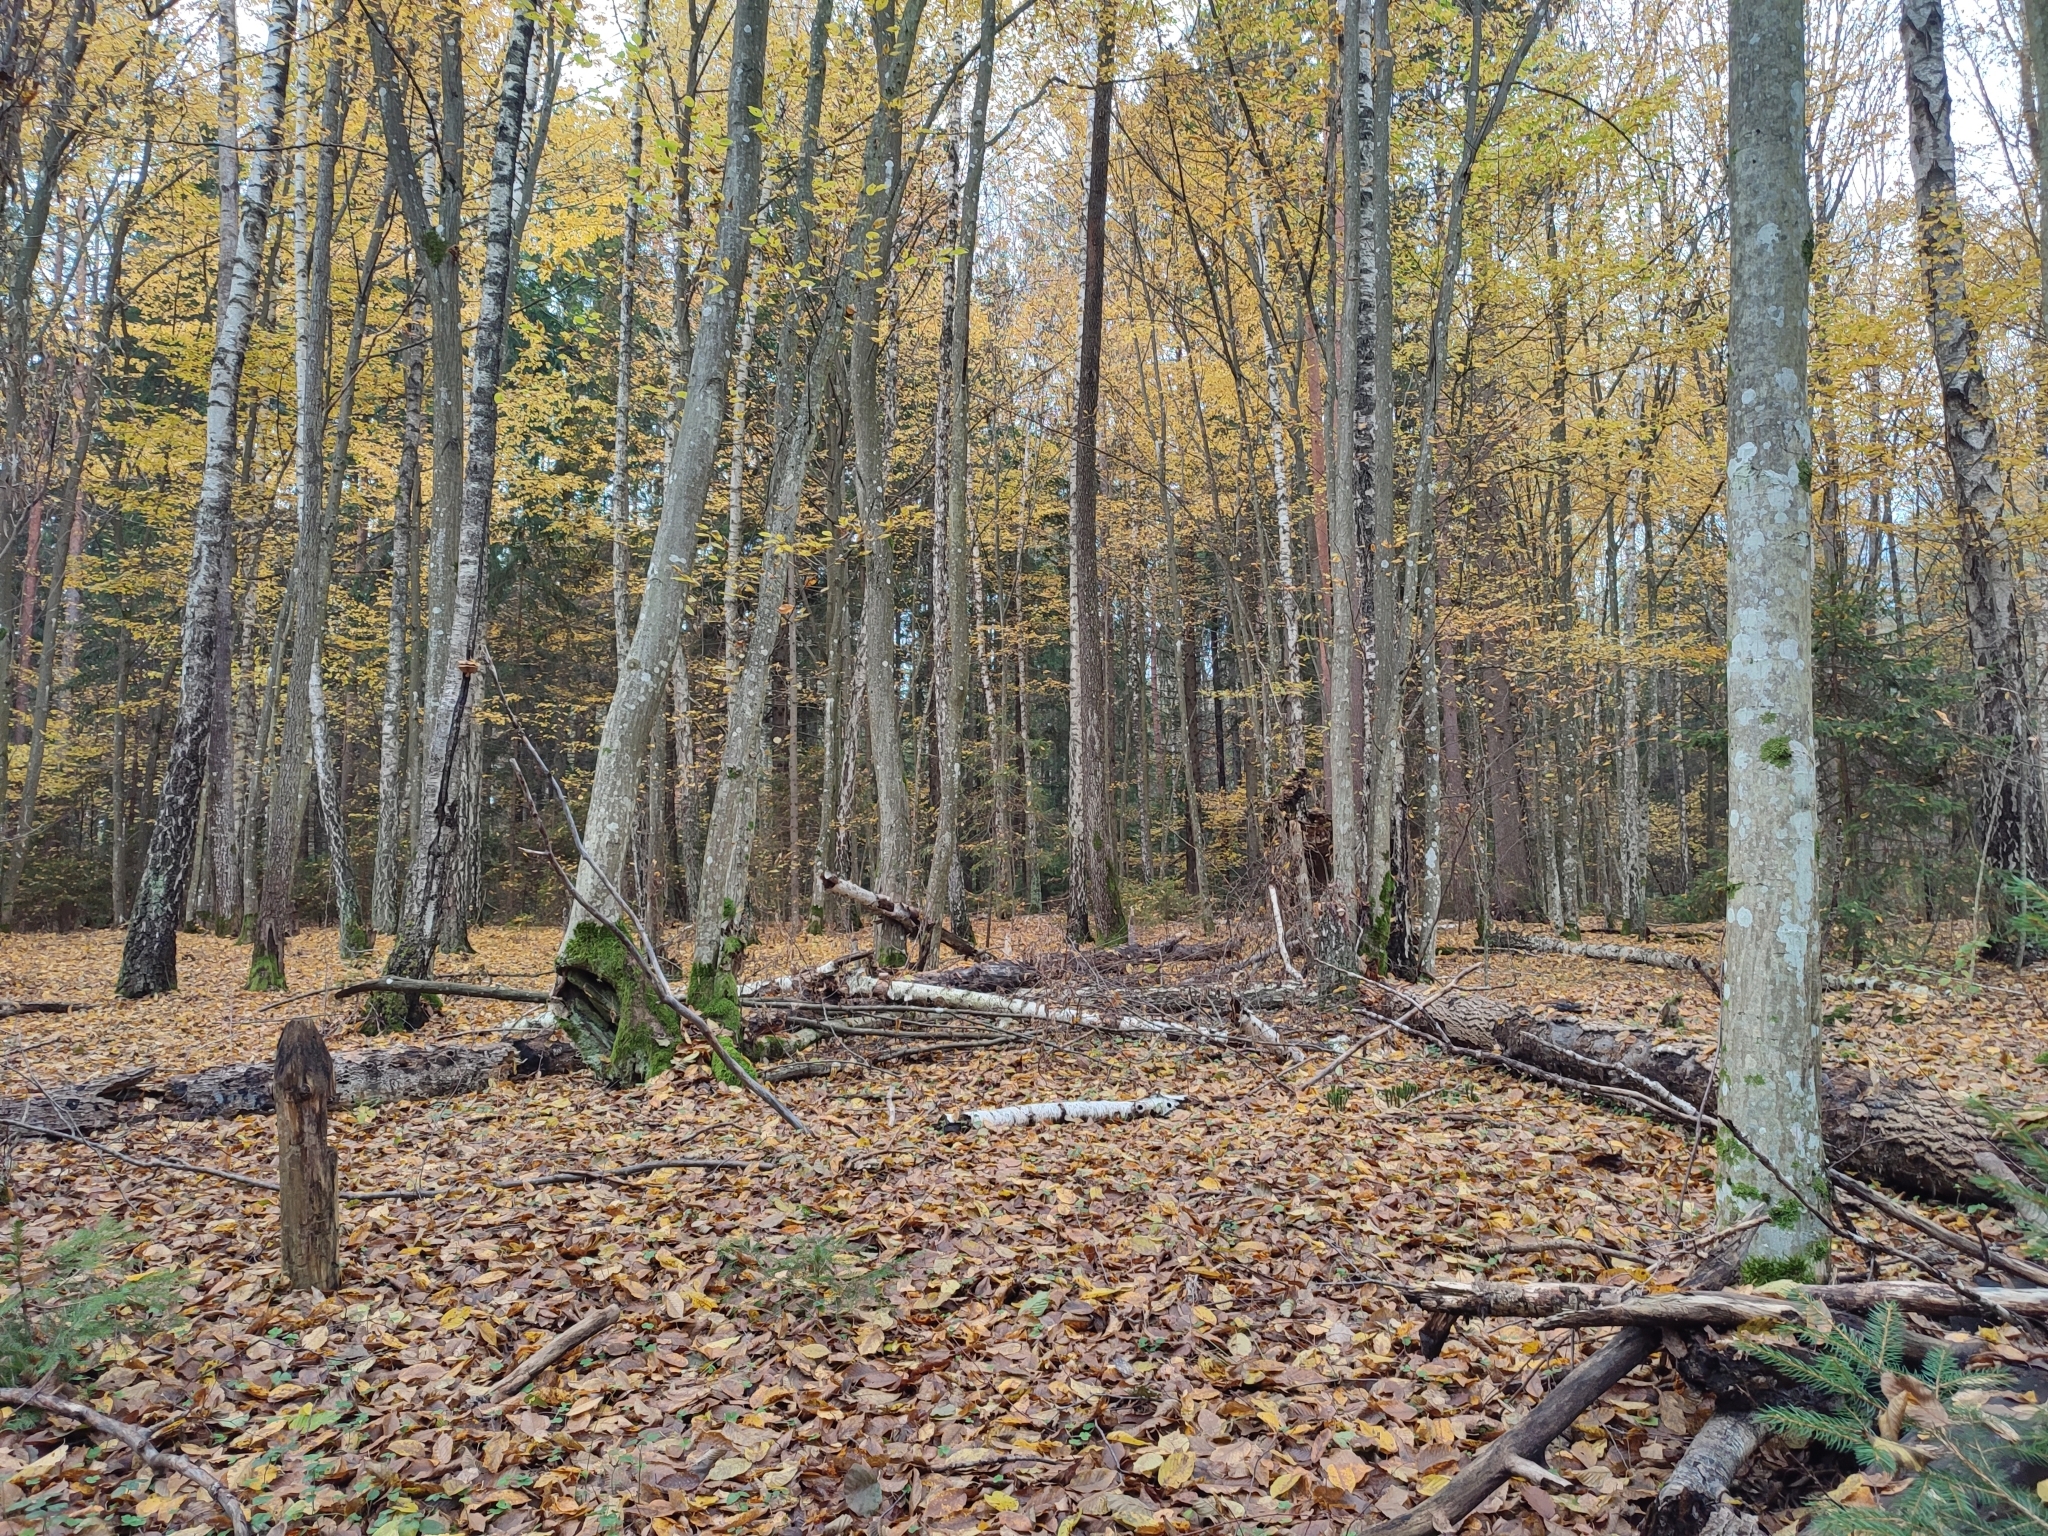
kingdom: Plantae
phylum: Tracheophyta
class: Magnoliopsida
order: Fagales
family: Betulaceae
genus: Carpinus
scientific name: Carpinus betulus
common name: Hornbeam
